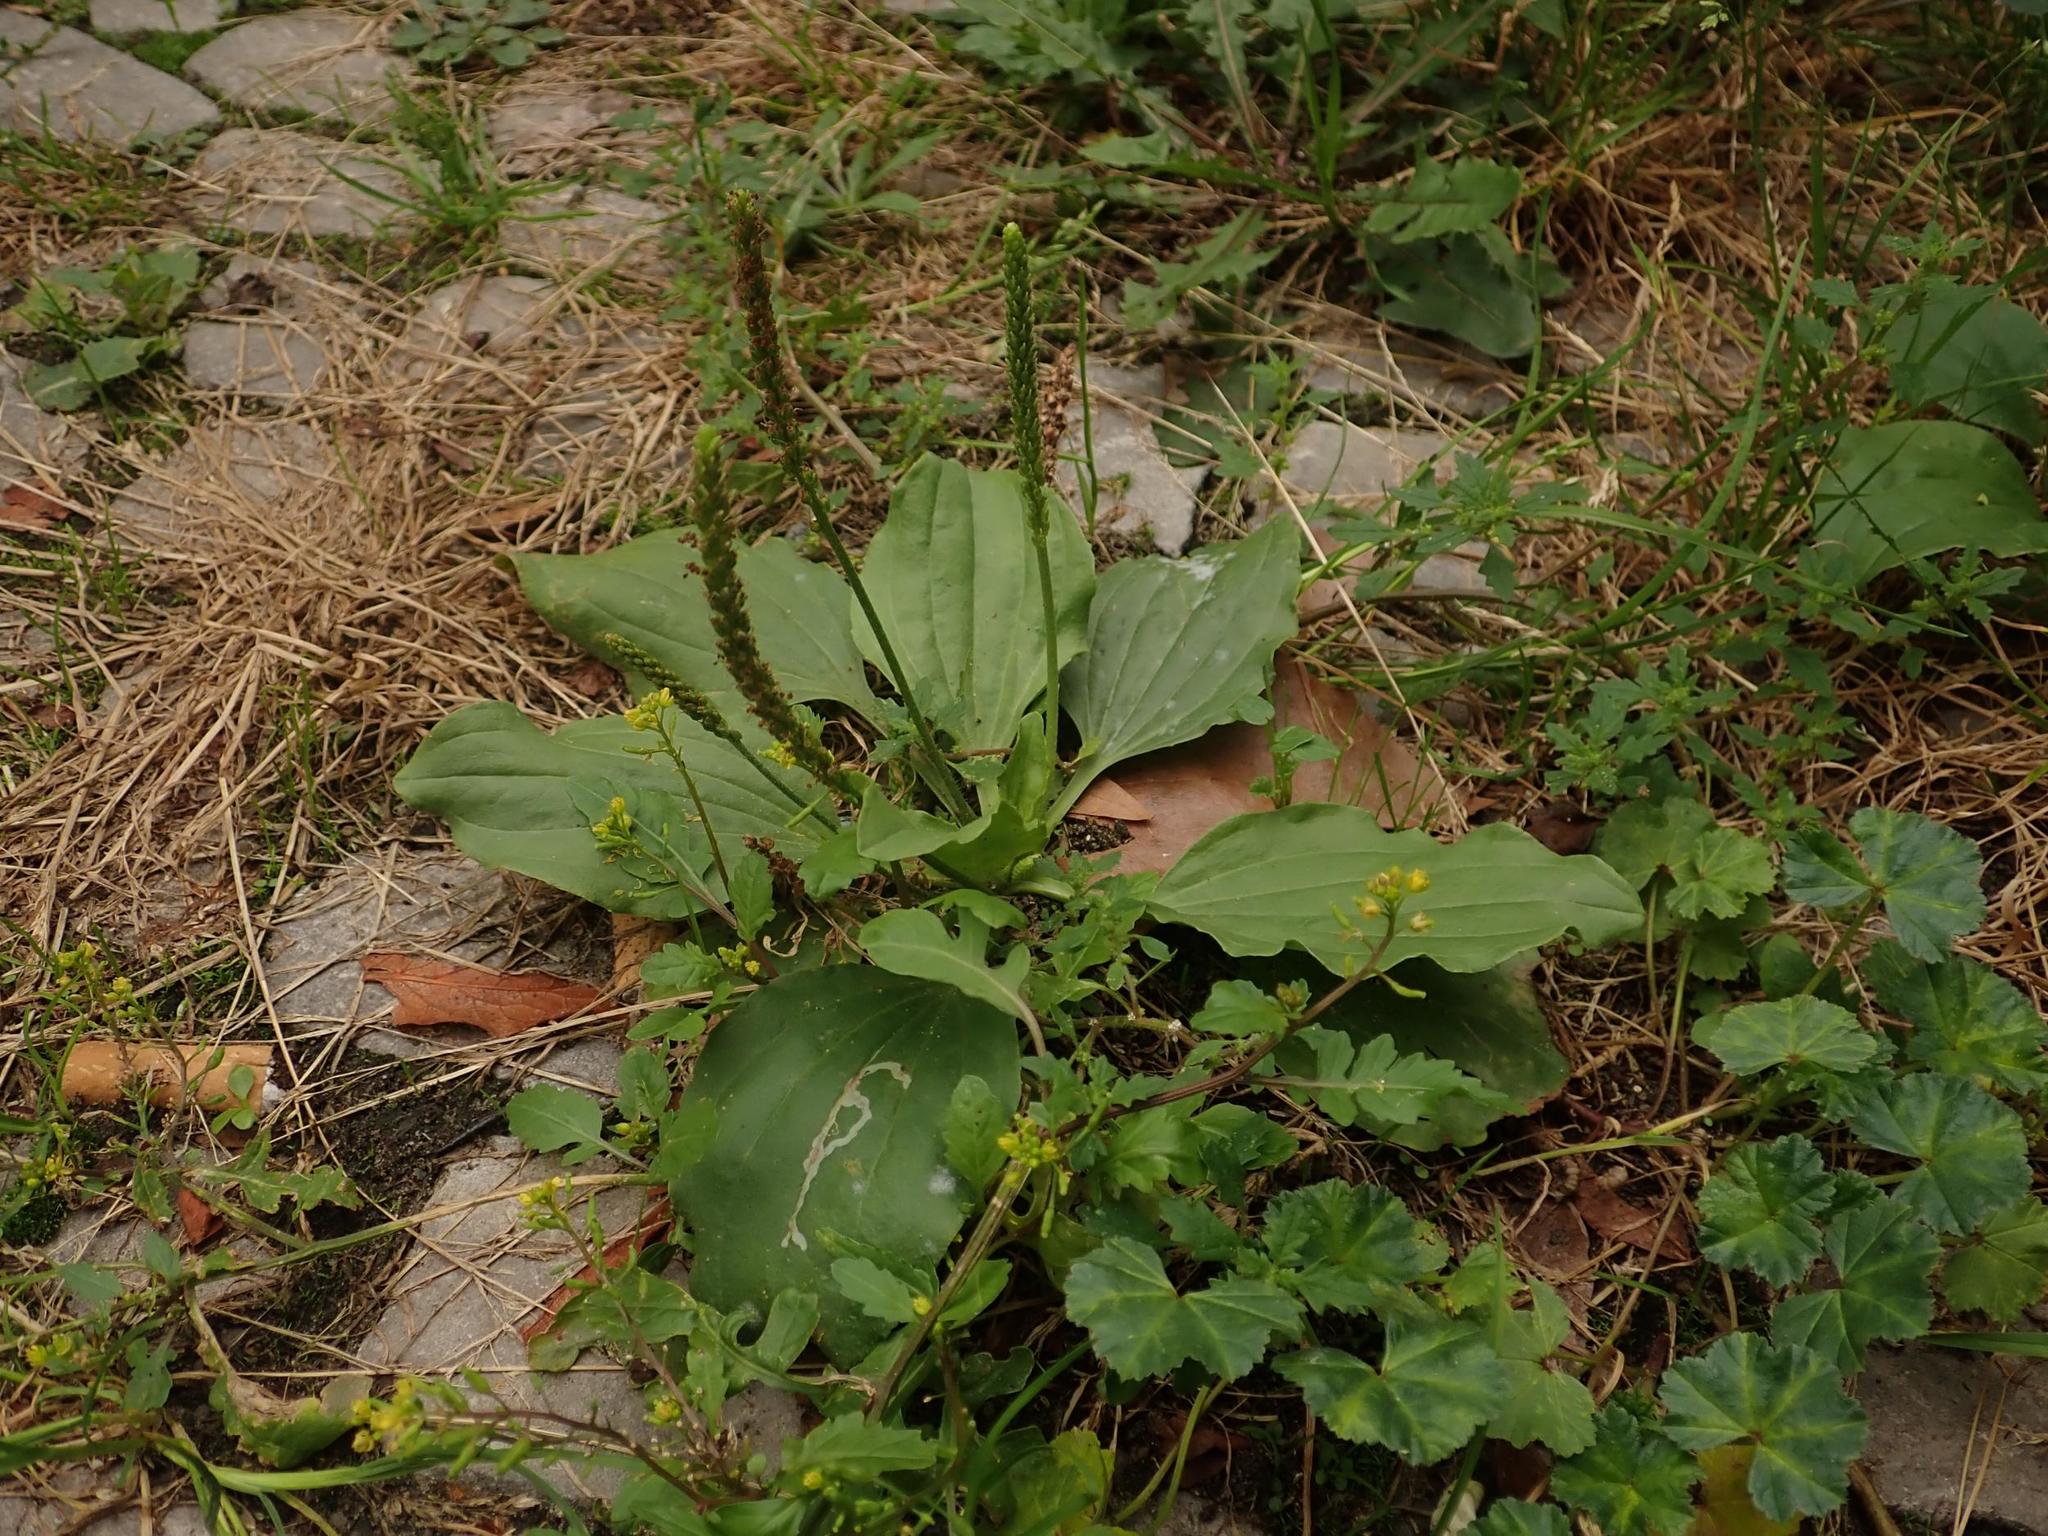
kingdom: Plantae
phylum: Tracheophyta
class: Magnoliopsida
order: Lamiales
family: Plantaginaceae
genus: Plantago
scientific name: Plantago major
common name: Common plantain
